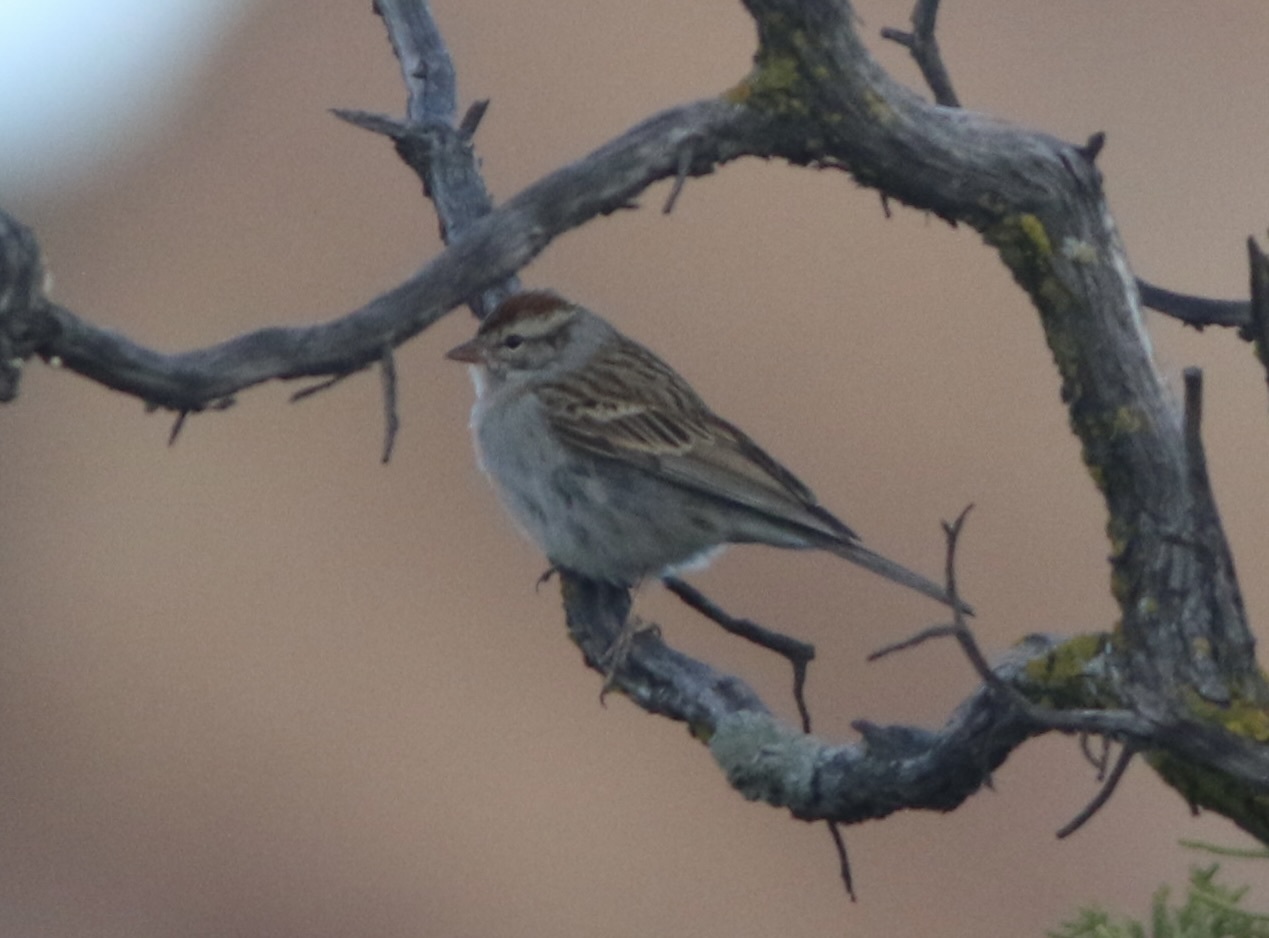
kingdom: Animalia
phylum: Chordata
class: Aves
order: Passeriformes
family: Passerellidae
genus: Spizella
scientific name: Spizella passerina
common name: Chipping sparrow
